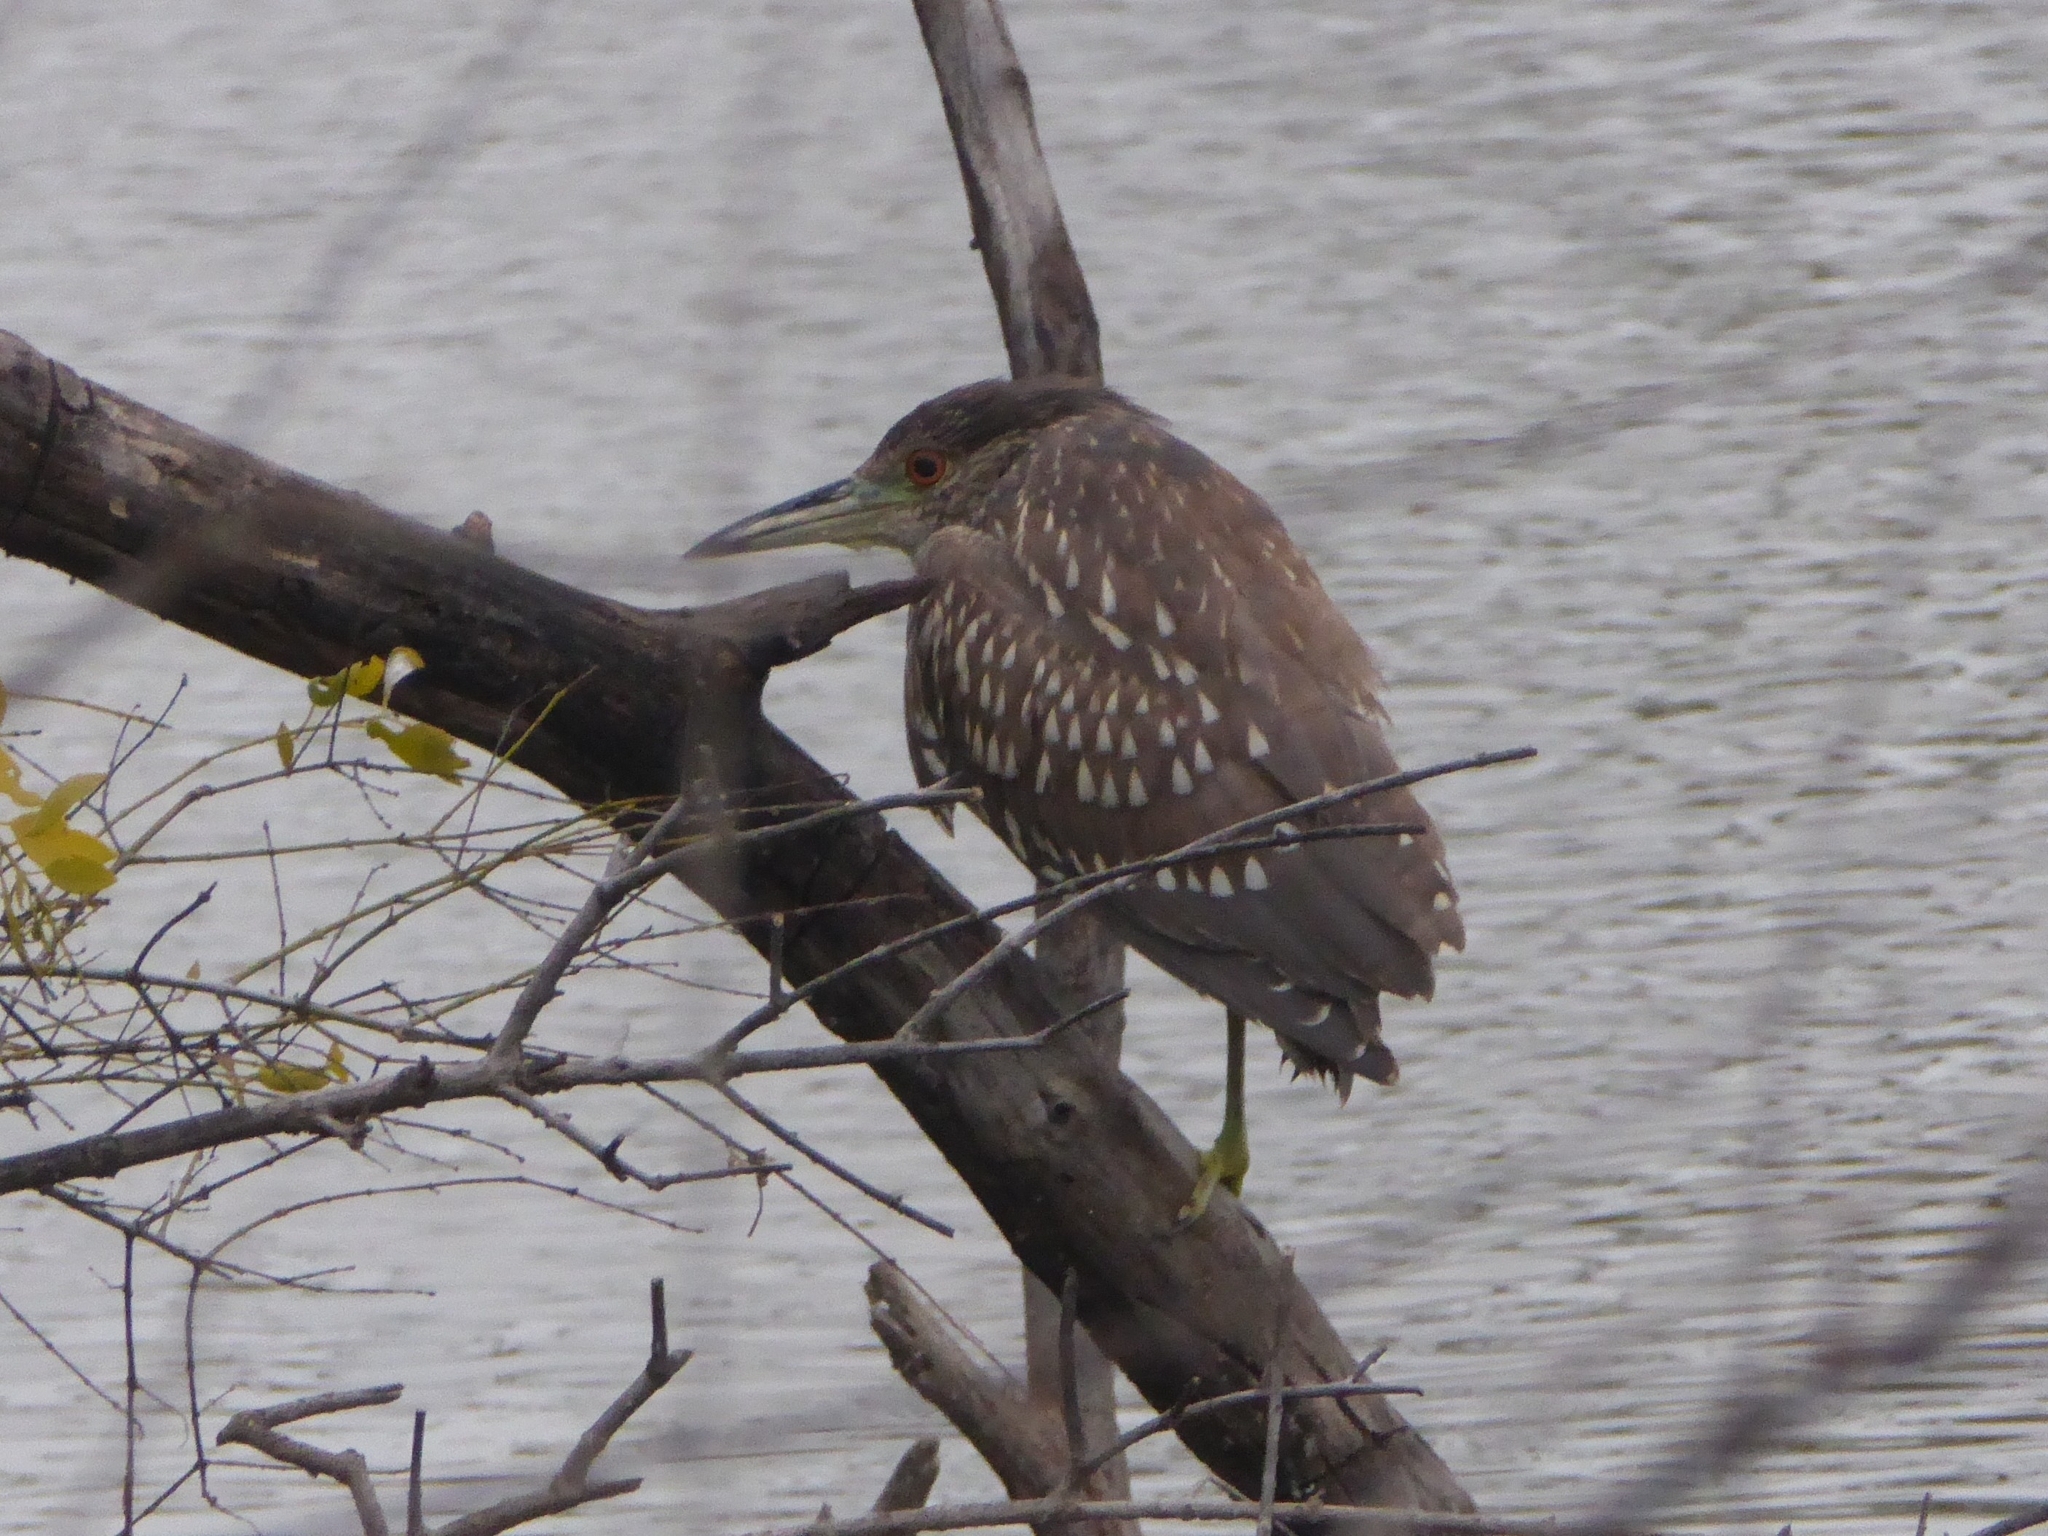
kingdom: Animalia
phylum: Chordata
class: Aves
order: Pelecaniformes
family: Ardeidae
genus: Nycticorax
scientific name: Nycticorax nycticorax
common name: Black-crowned night heron
